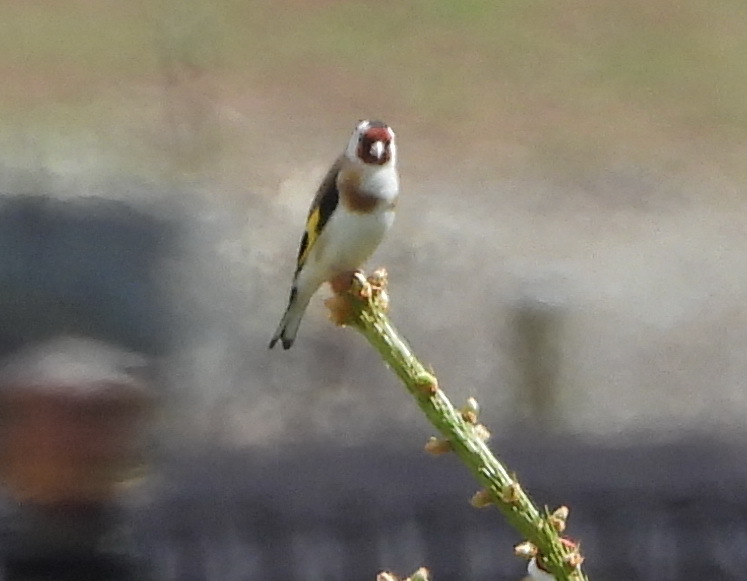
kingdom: Animalia
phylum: Chordata
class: Aves
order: Passeriformes
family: Fringillidae
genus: Carduelis
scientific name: Carduelis carduelis
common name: European goldfinch
